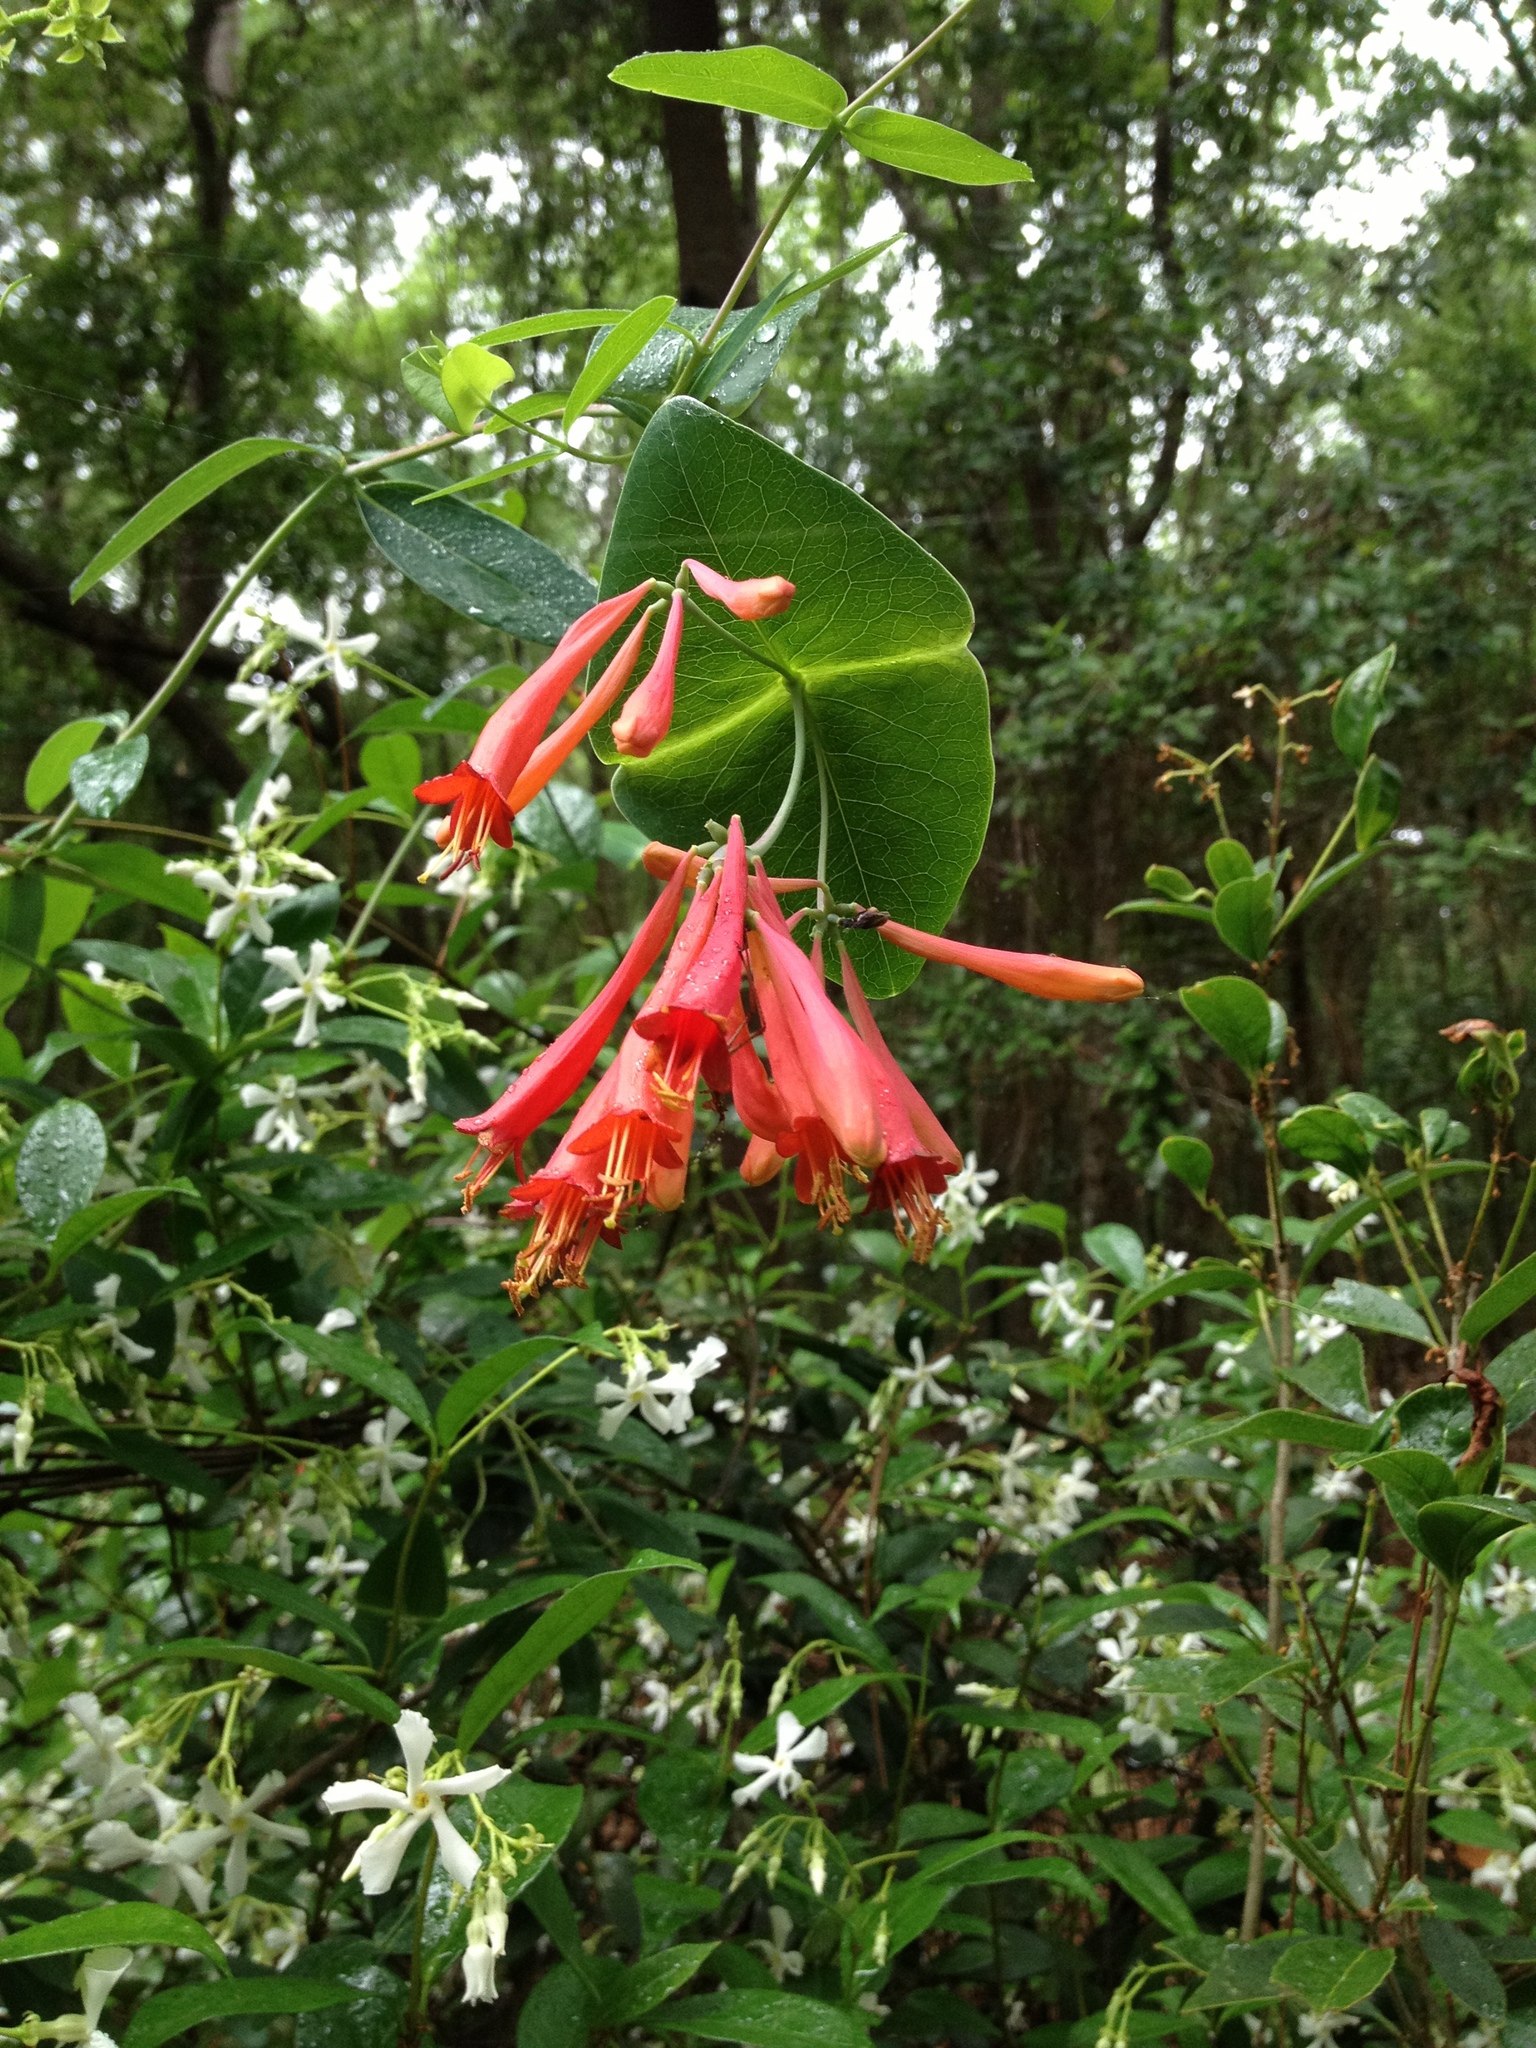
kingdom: Plantae
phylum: Tracheophyta
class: Magnoliopsida
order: Dipsacales
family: Caprifoliaceae
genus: Lonicera
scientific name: Lonicera sempervirens
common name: Coral honeysuckle
